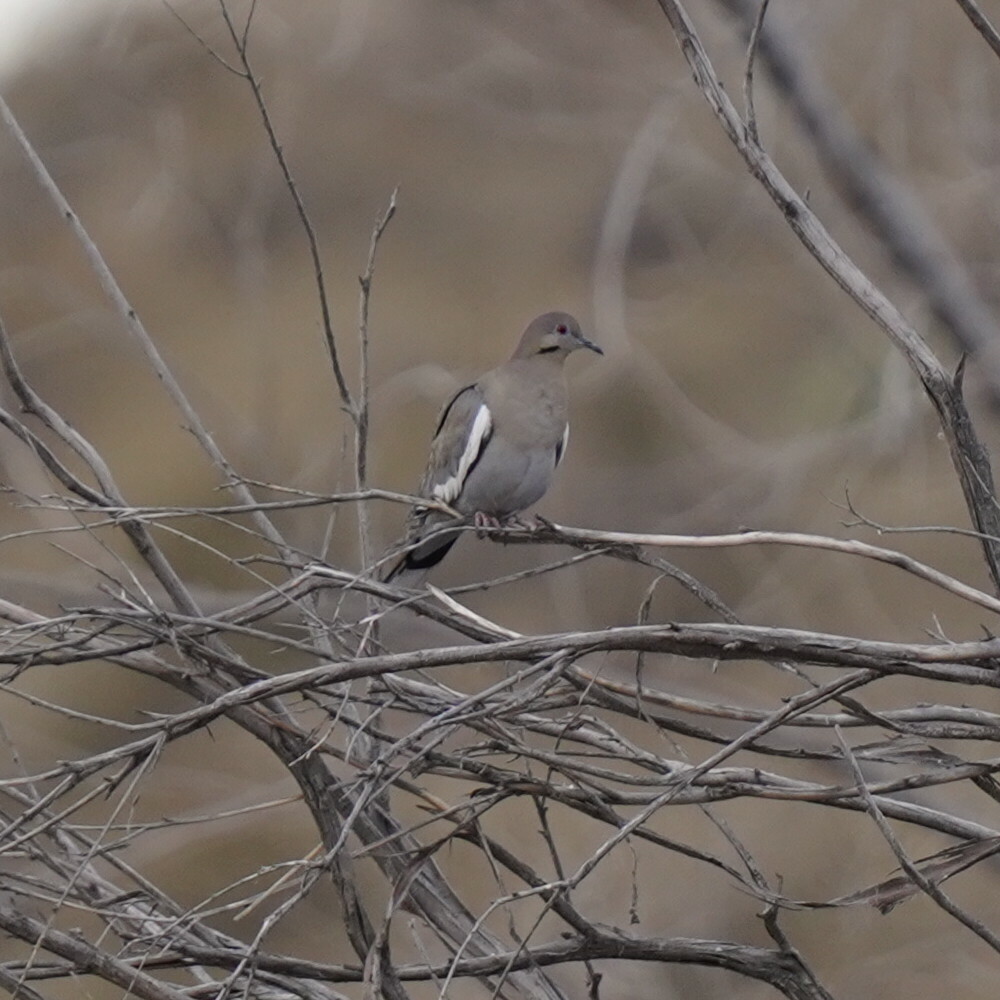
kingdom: Animalia
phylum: Chordata
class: Aves
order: Columbiformes
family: Columbidae
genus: Zenaida
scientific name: Zenaida asiatica
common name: White-winged dove
